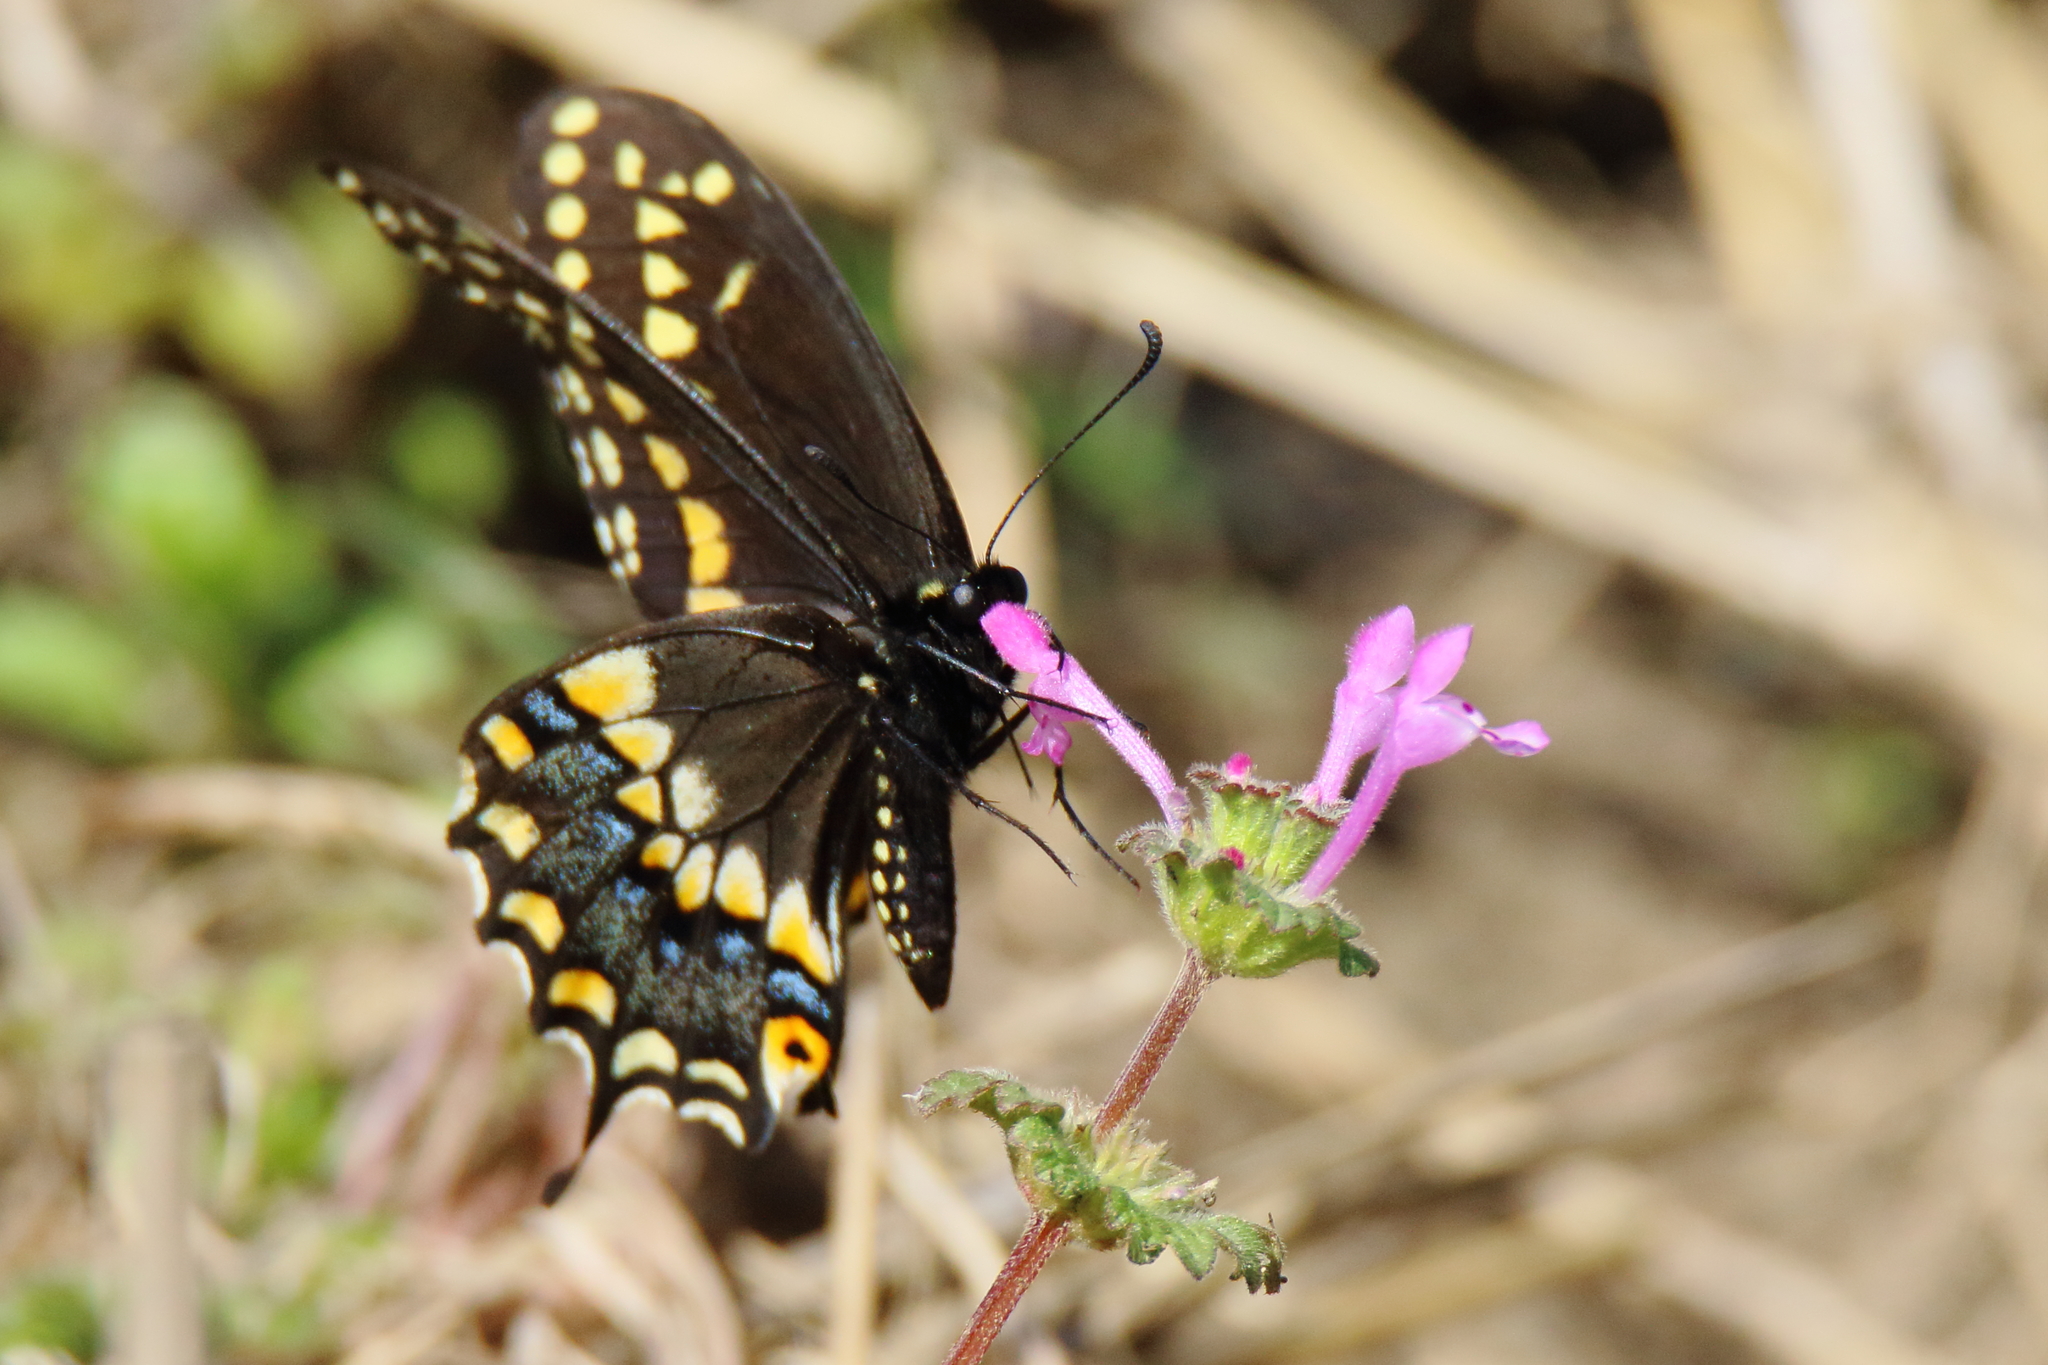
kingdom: Animalia
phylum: Arthropoda
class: Insecta
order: Lepidoptera
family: Papilionidae
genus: Papilio
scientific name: Papilio polyxenes
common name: Black swallowtail
